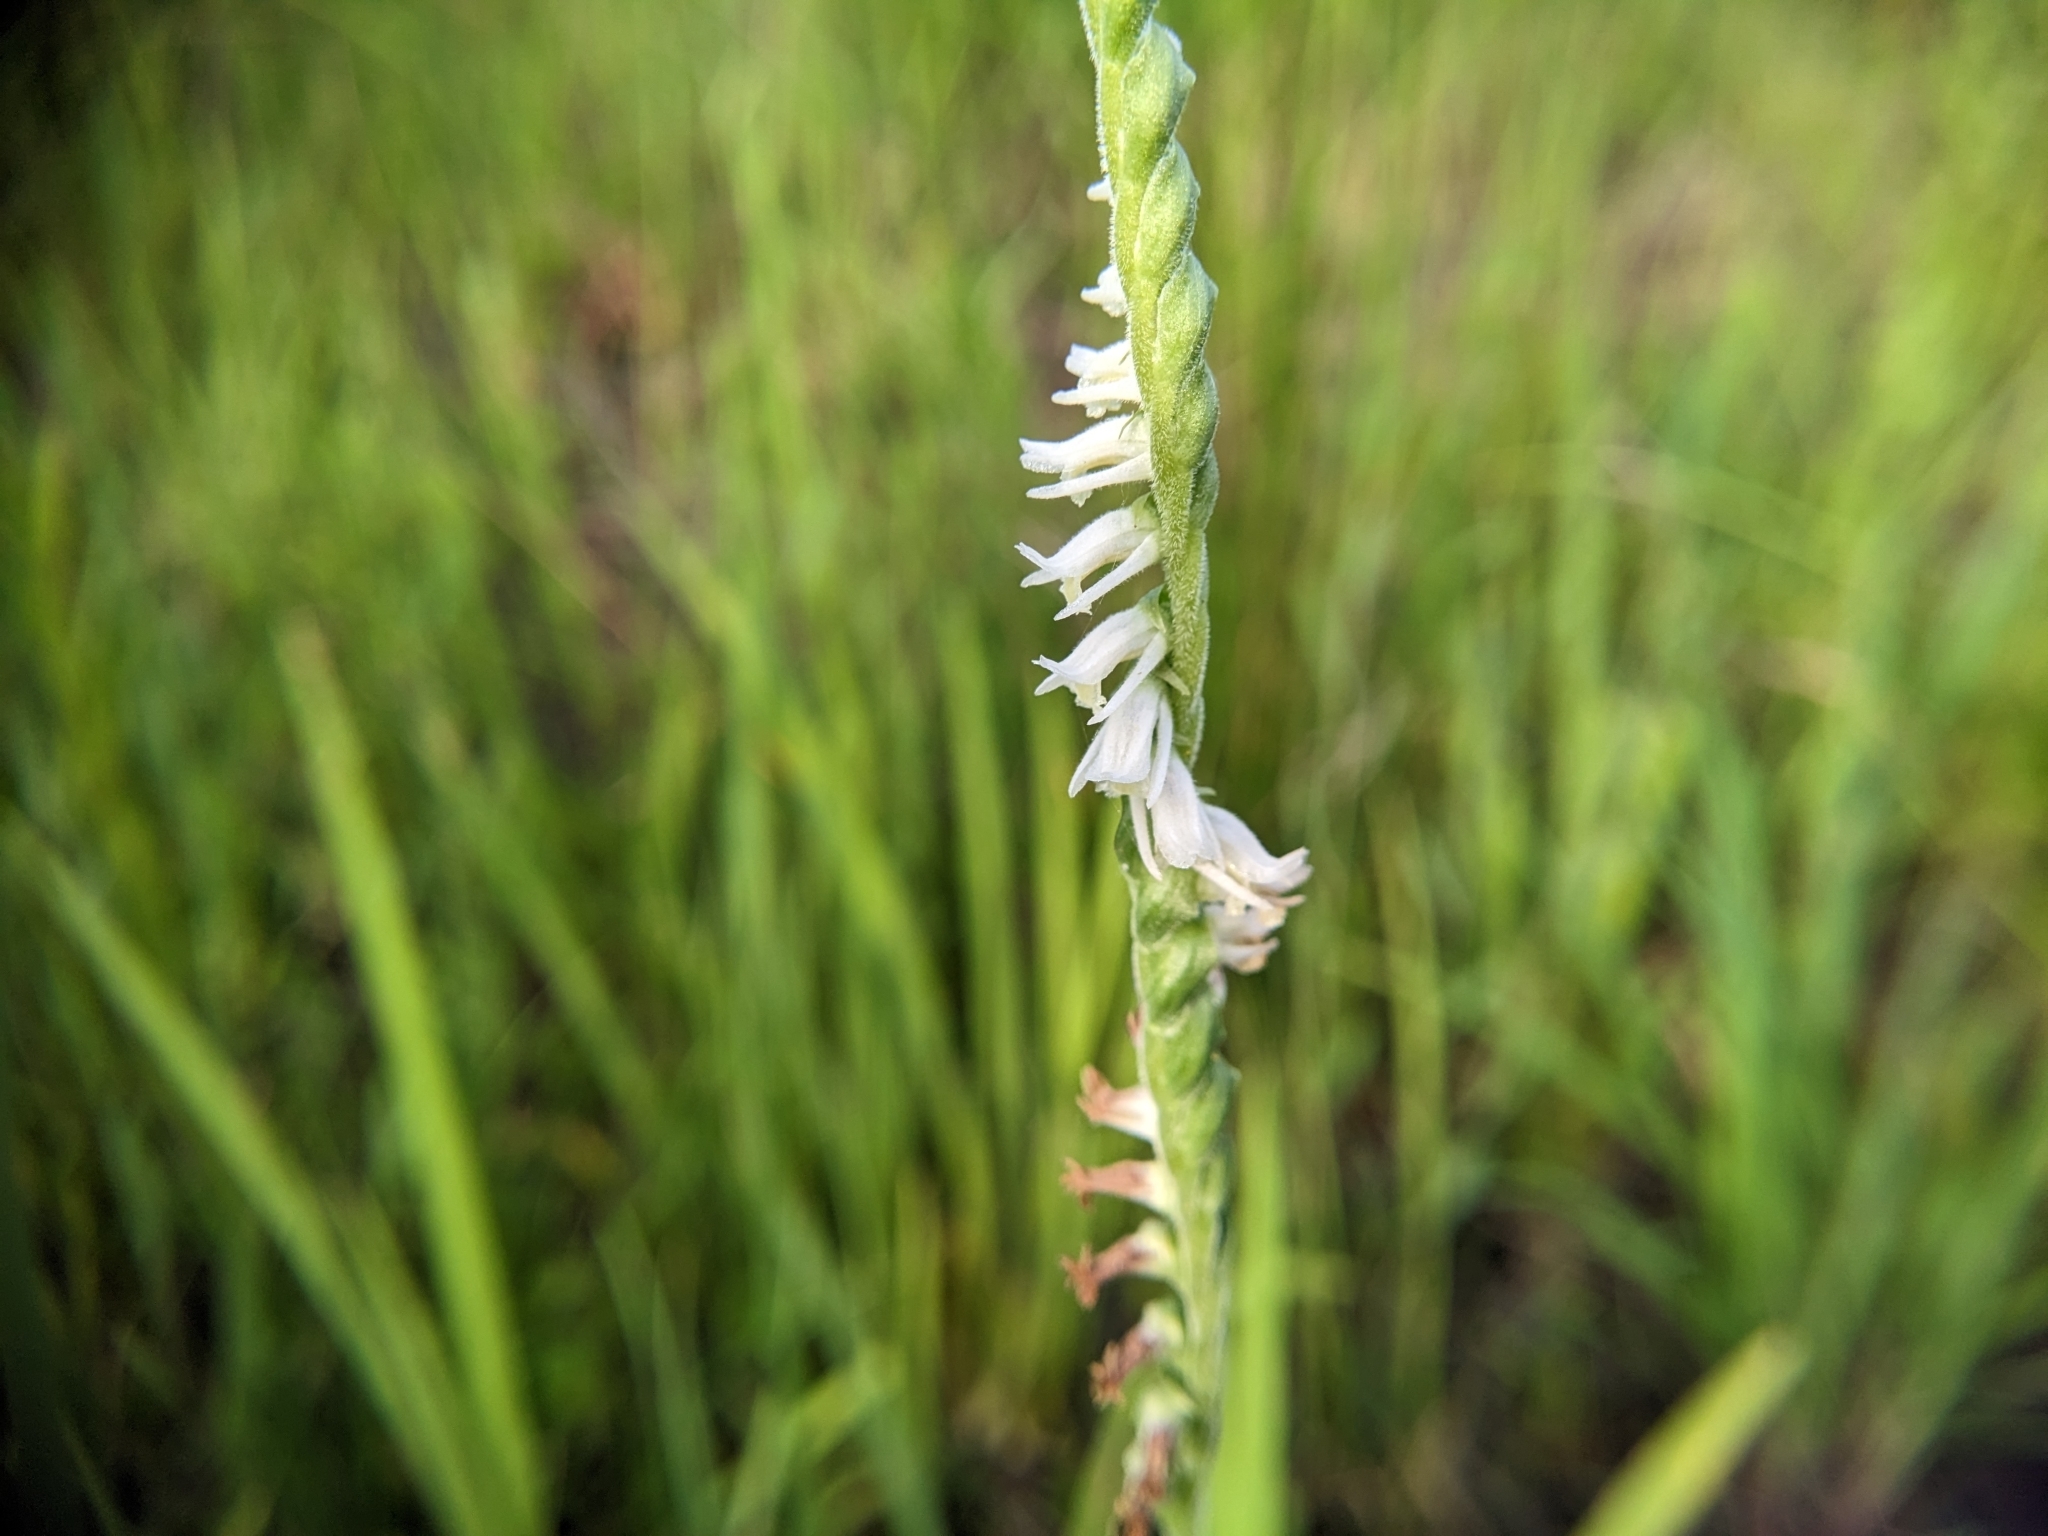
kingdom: Plantae
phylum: Tracheophyta
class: Liliopsida
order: Asparagales
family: Orchidaceae
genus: Spiranthes
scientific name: Spiranthes vernalis
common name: Spring ladies'-tresses
